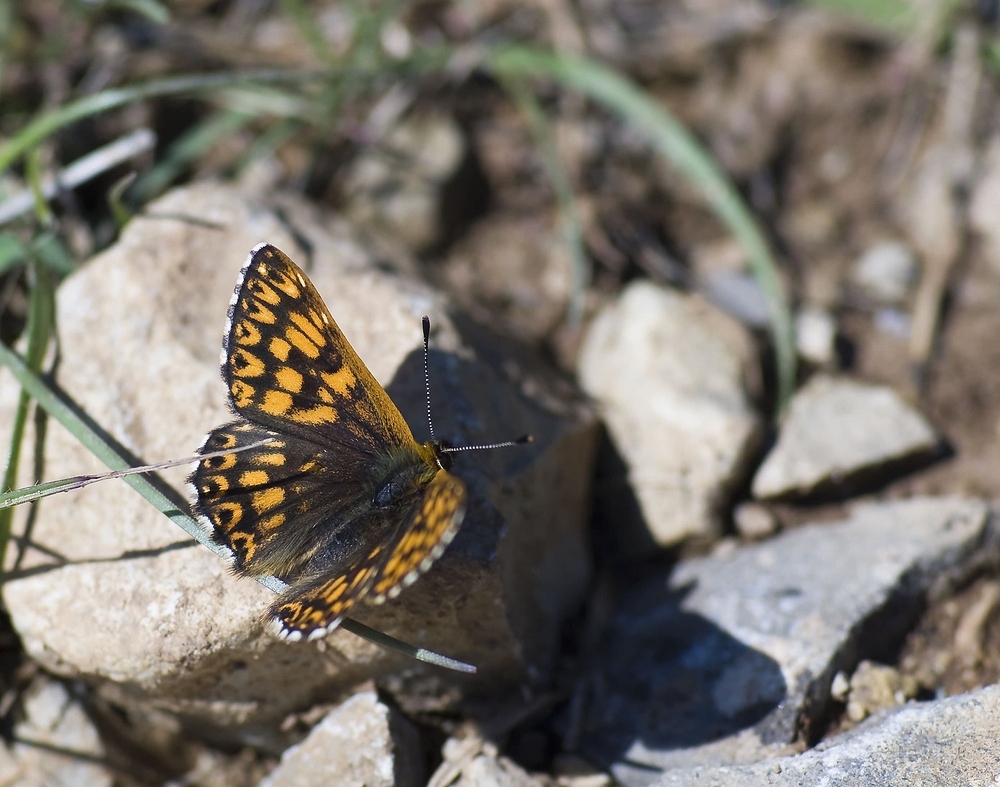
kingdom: Animalia
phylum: Arthropoda
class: Insecta
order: Lepidoptera
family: Riodinidae
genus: Hamearis
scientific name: Hamearis lucina
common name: Duke of burgundy fritillary
